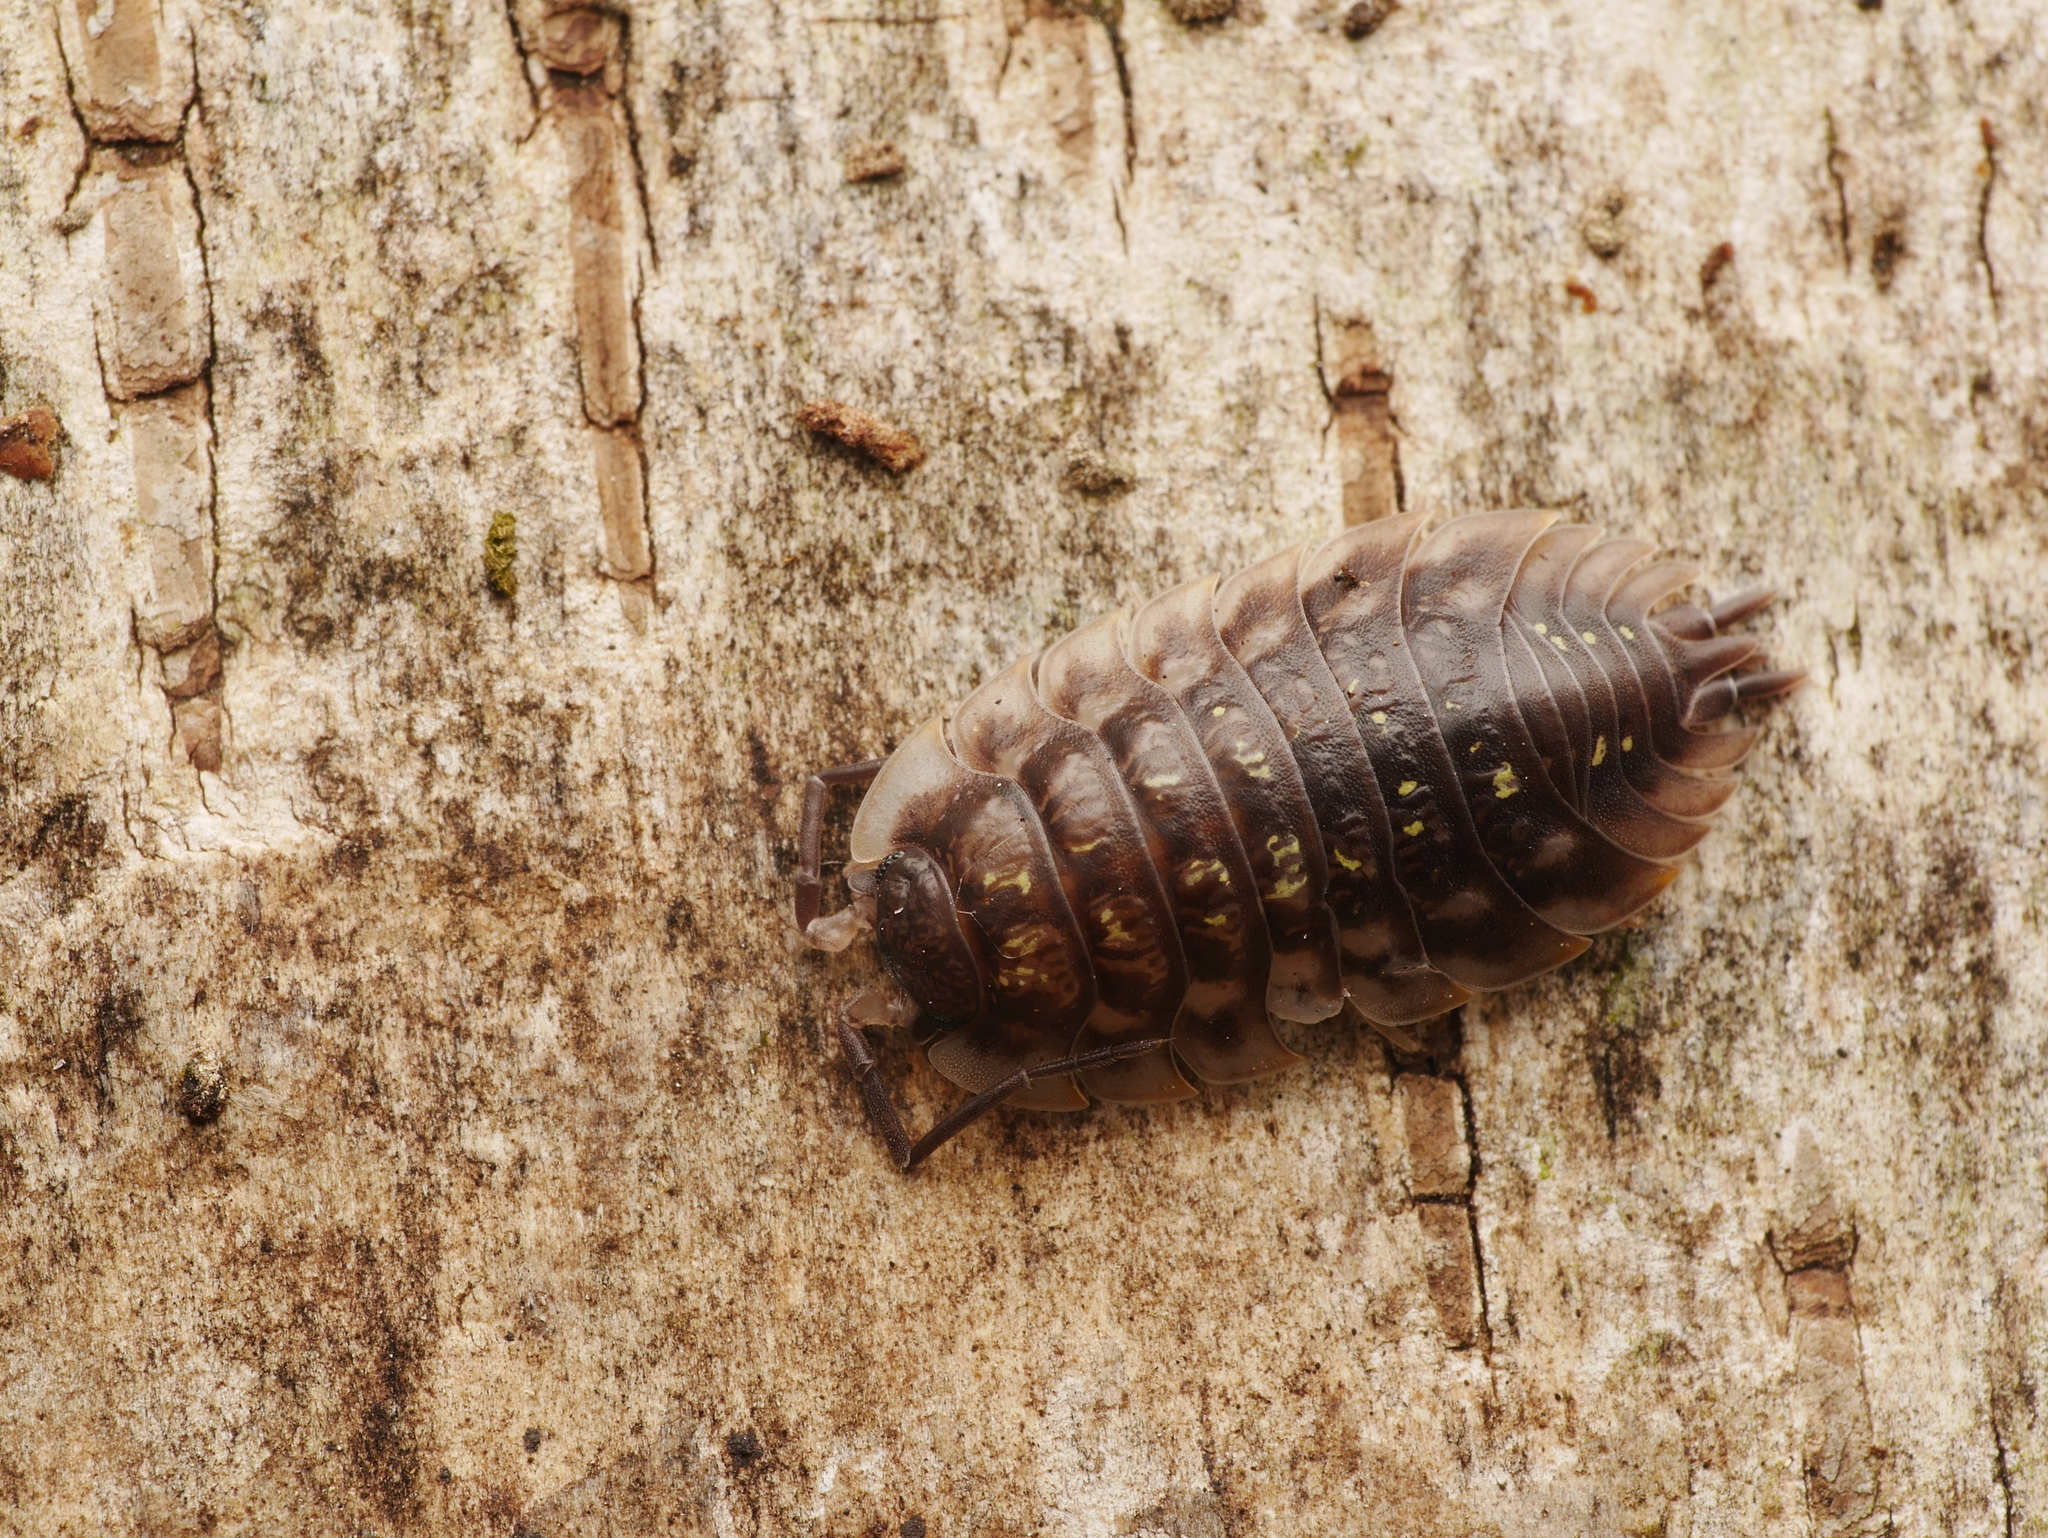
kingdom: Animalia
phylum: Arthropoda
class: Malacostraca
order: Isopoda
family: Oniscidae
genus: Oniscus
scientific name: Oniscus asellus
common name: Common shiny woodlouse
